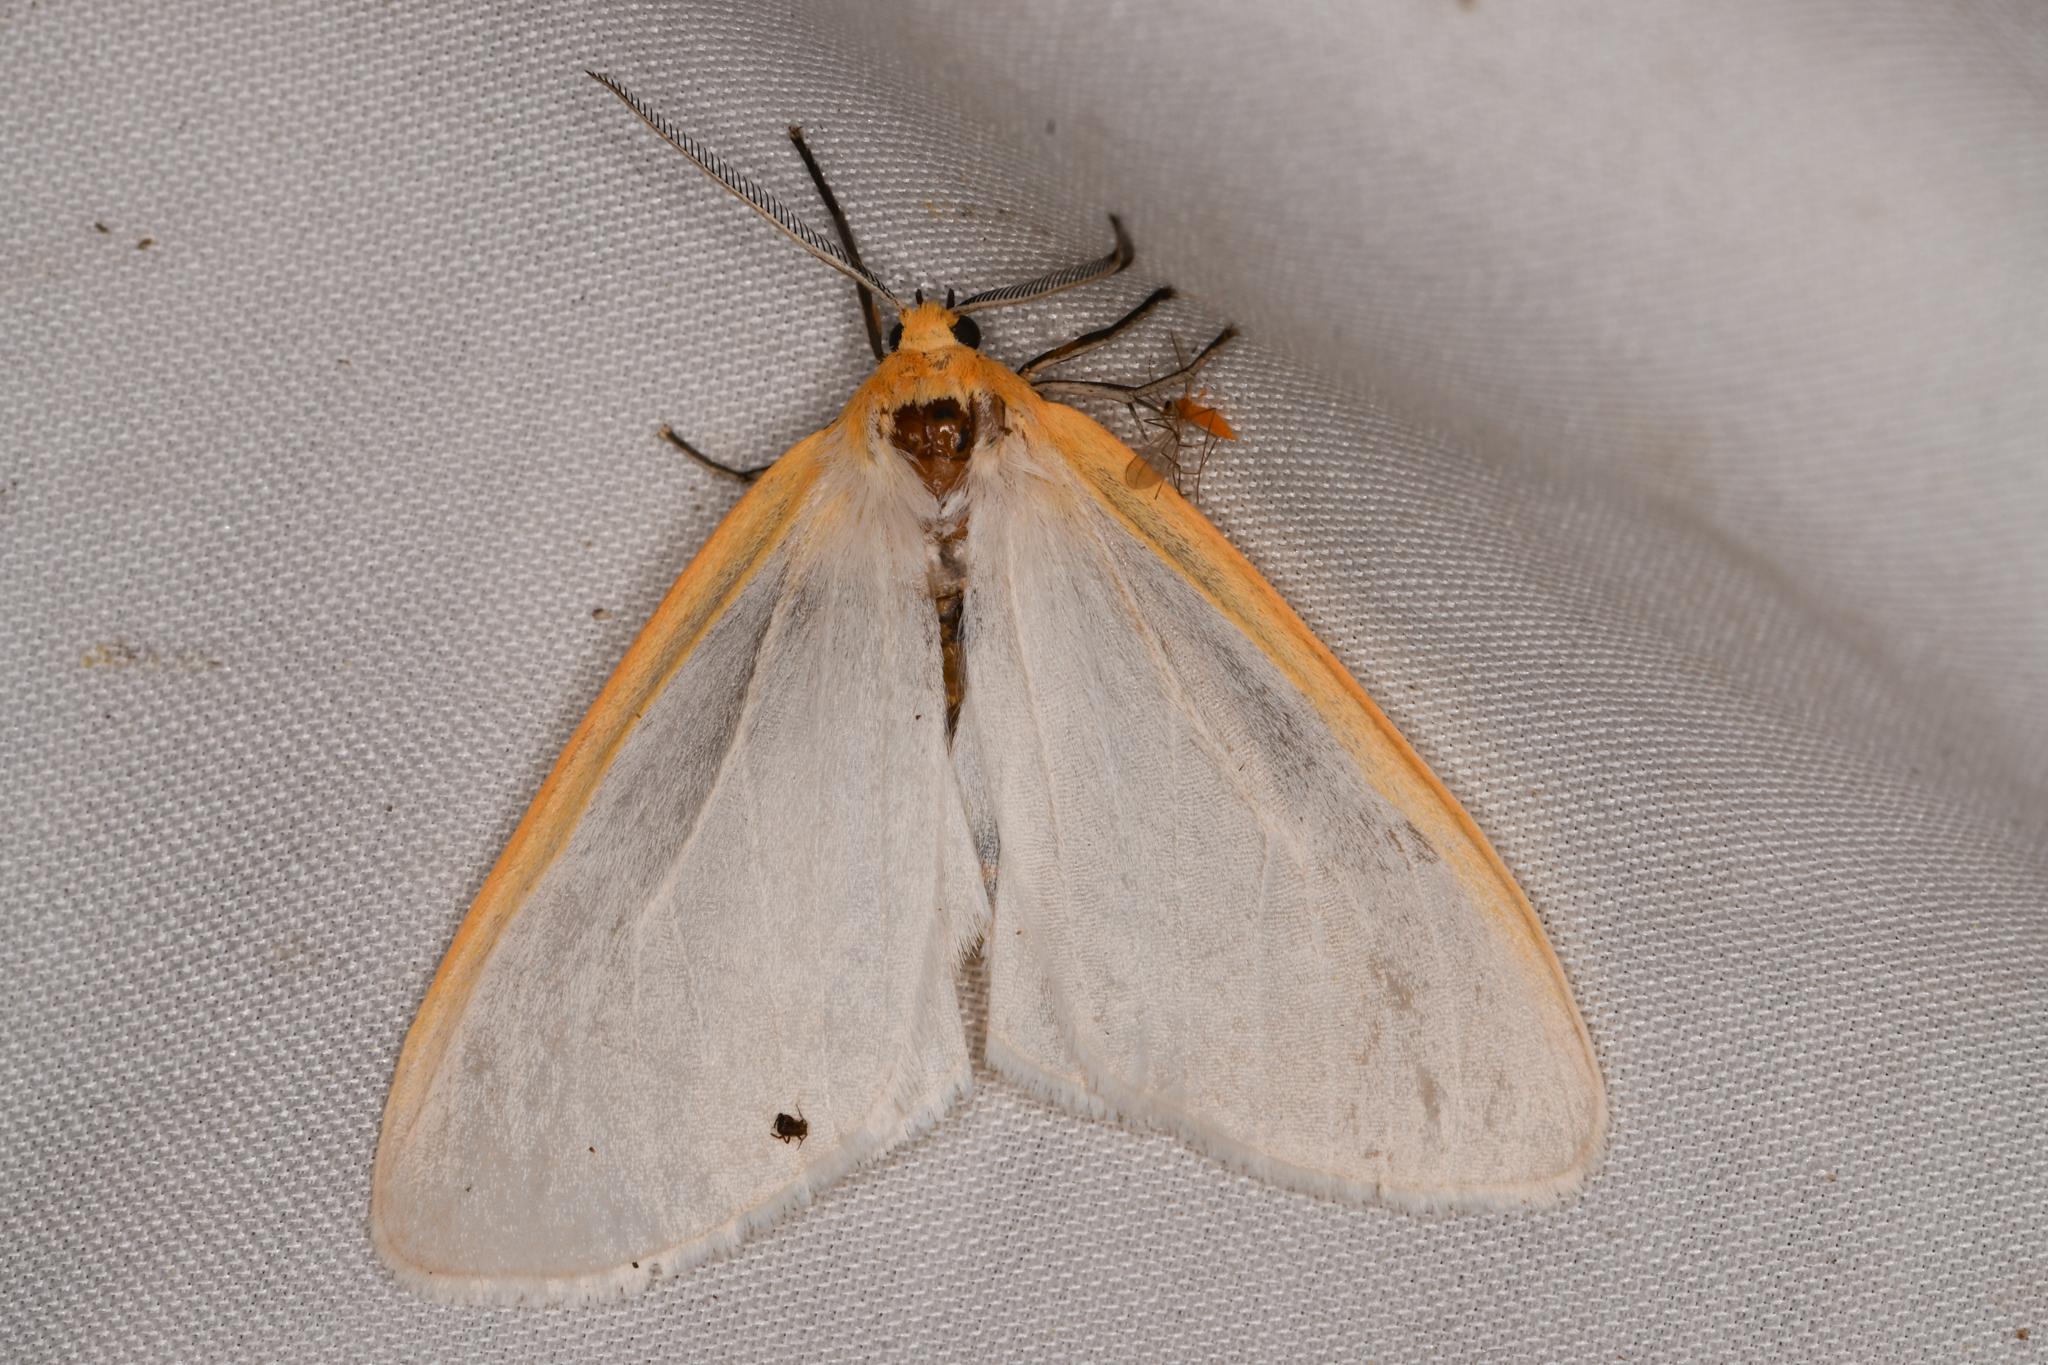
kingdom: Animalia
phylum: Arthropoda
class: Insecta
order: Lepidoptera
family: Erebidae
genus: Cycnia
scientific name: Cycnia tenera
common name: Delicate cycnia moth
